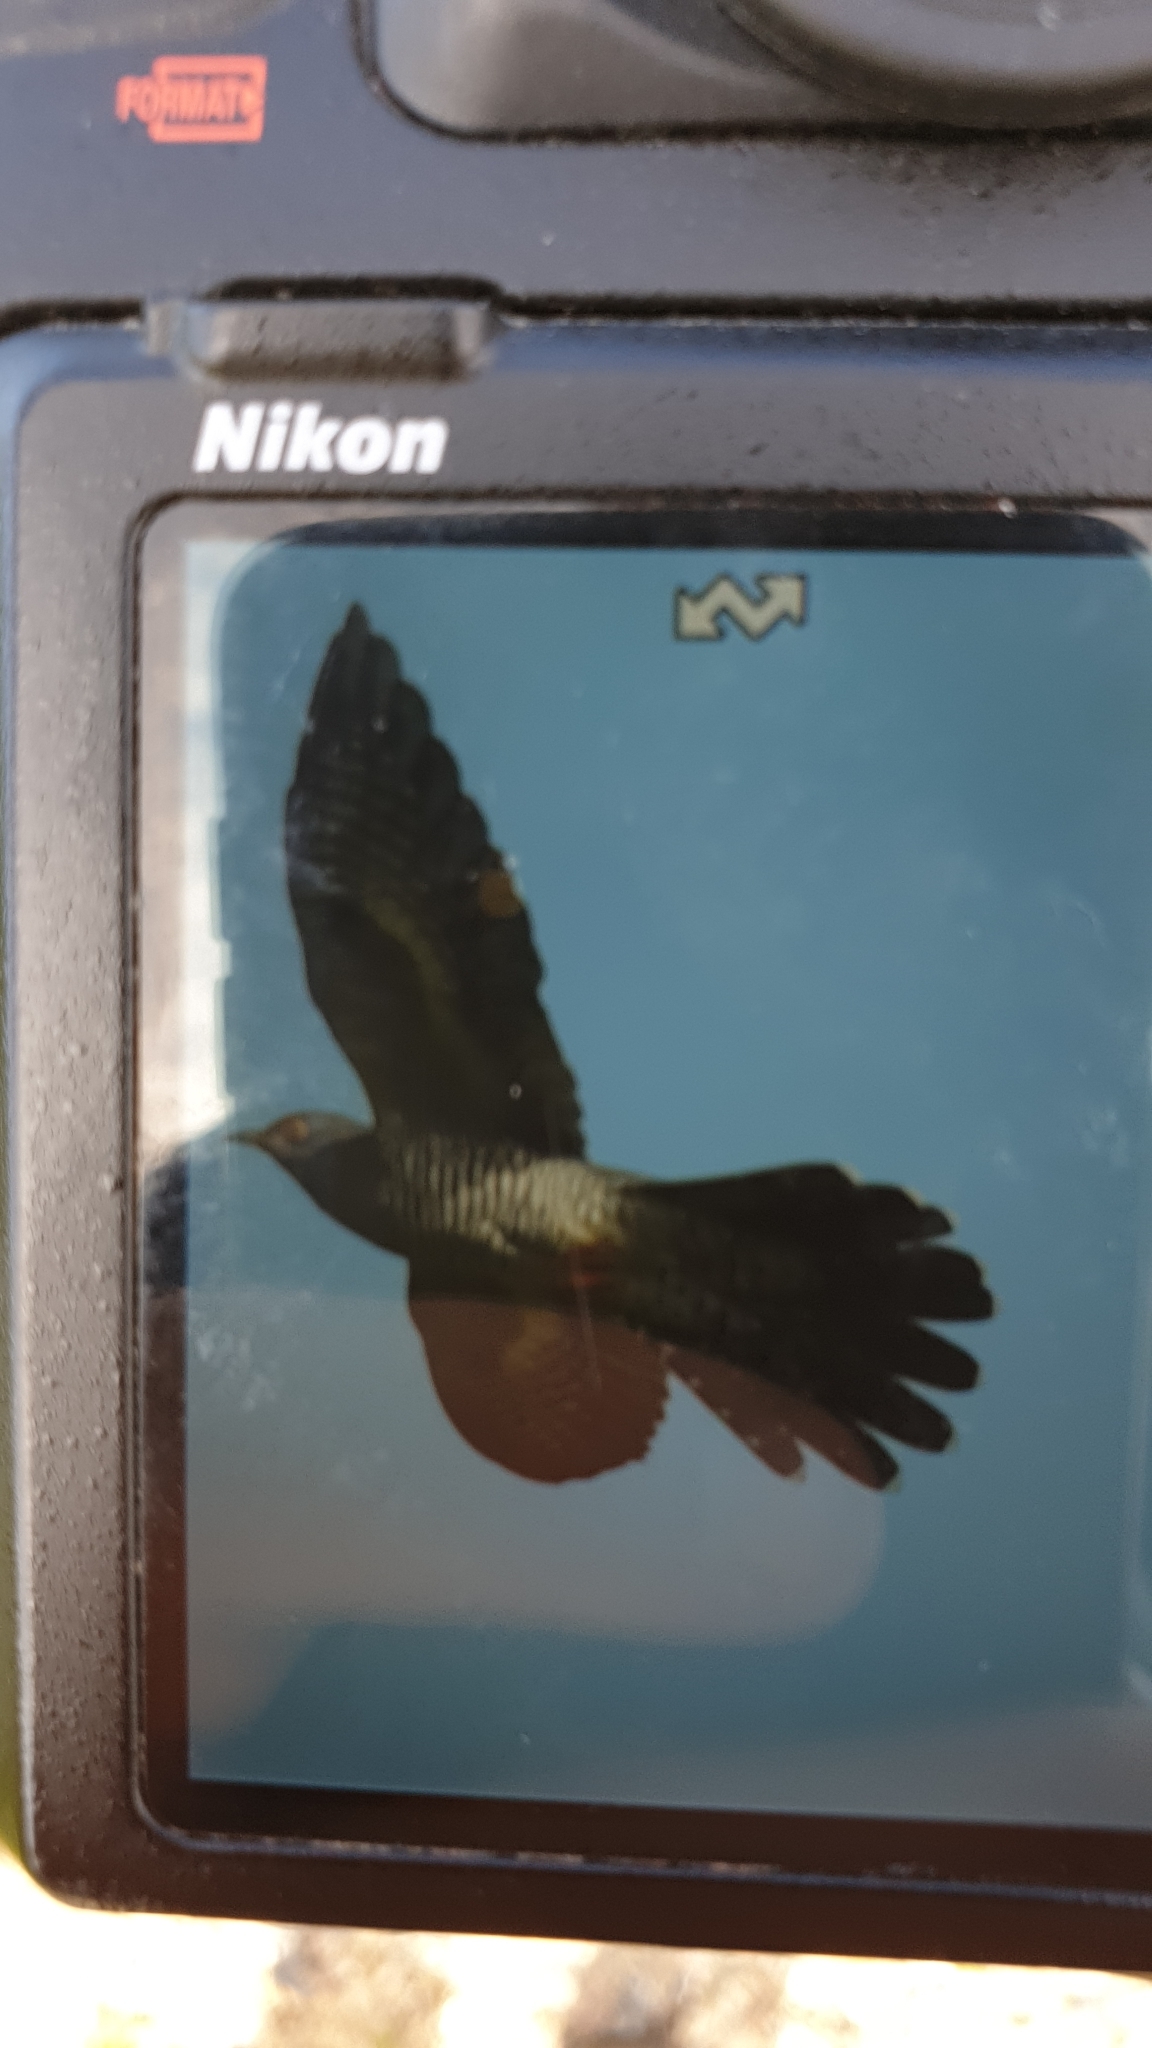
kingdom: Animalia
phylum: Chordata
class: Aves
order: Cuculiformes
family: Cuculidae
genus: Cuculus
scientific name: Cuculus canorus
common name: Common cuckoo
